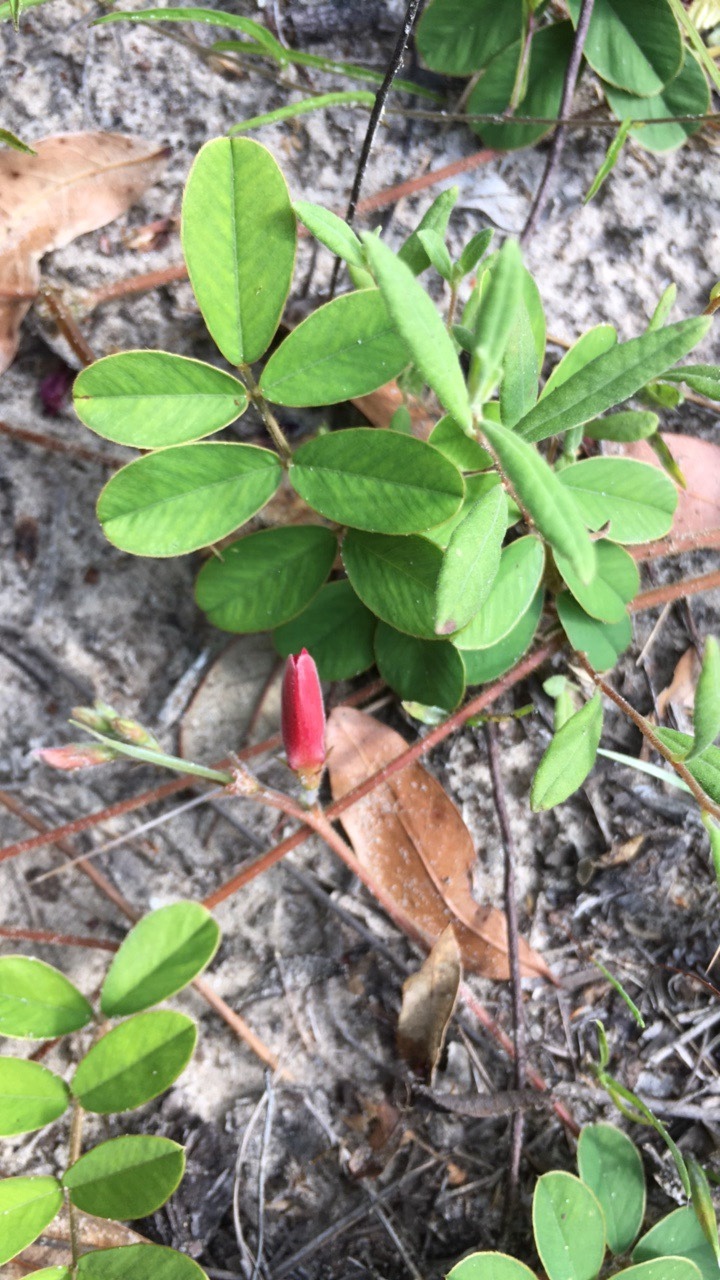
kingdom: Plantae
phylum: Tracheophyta
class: Magnoliopsida
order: Fabales
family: Fabaceae
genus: Tephrosia
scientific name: Tephrosia spicata
